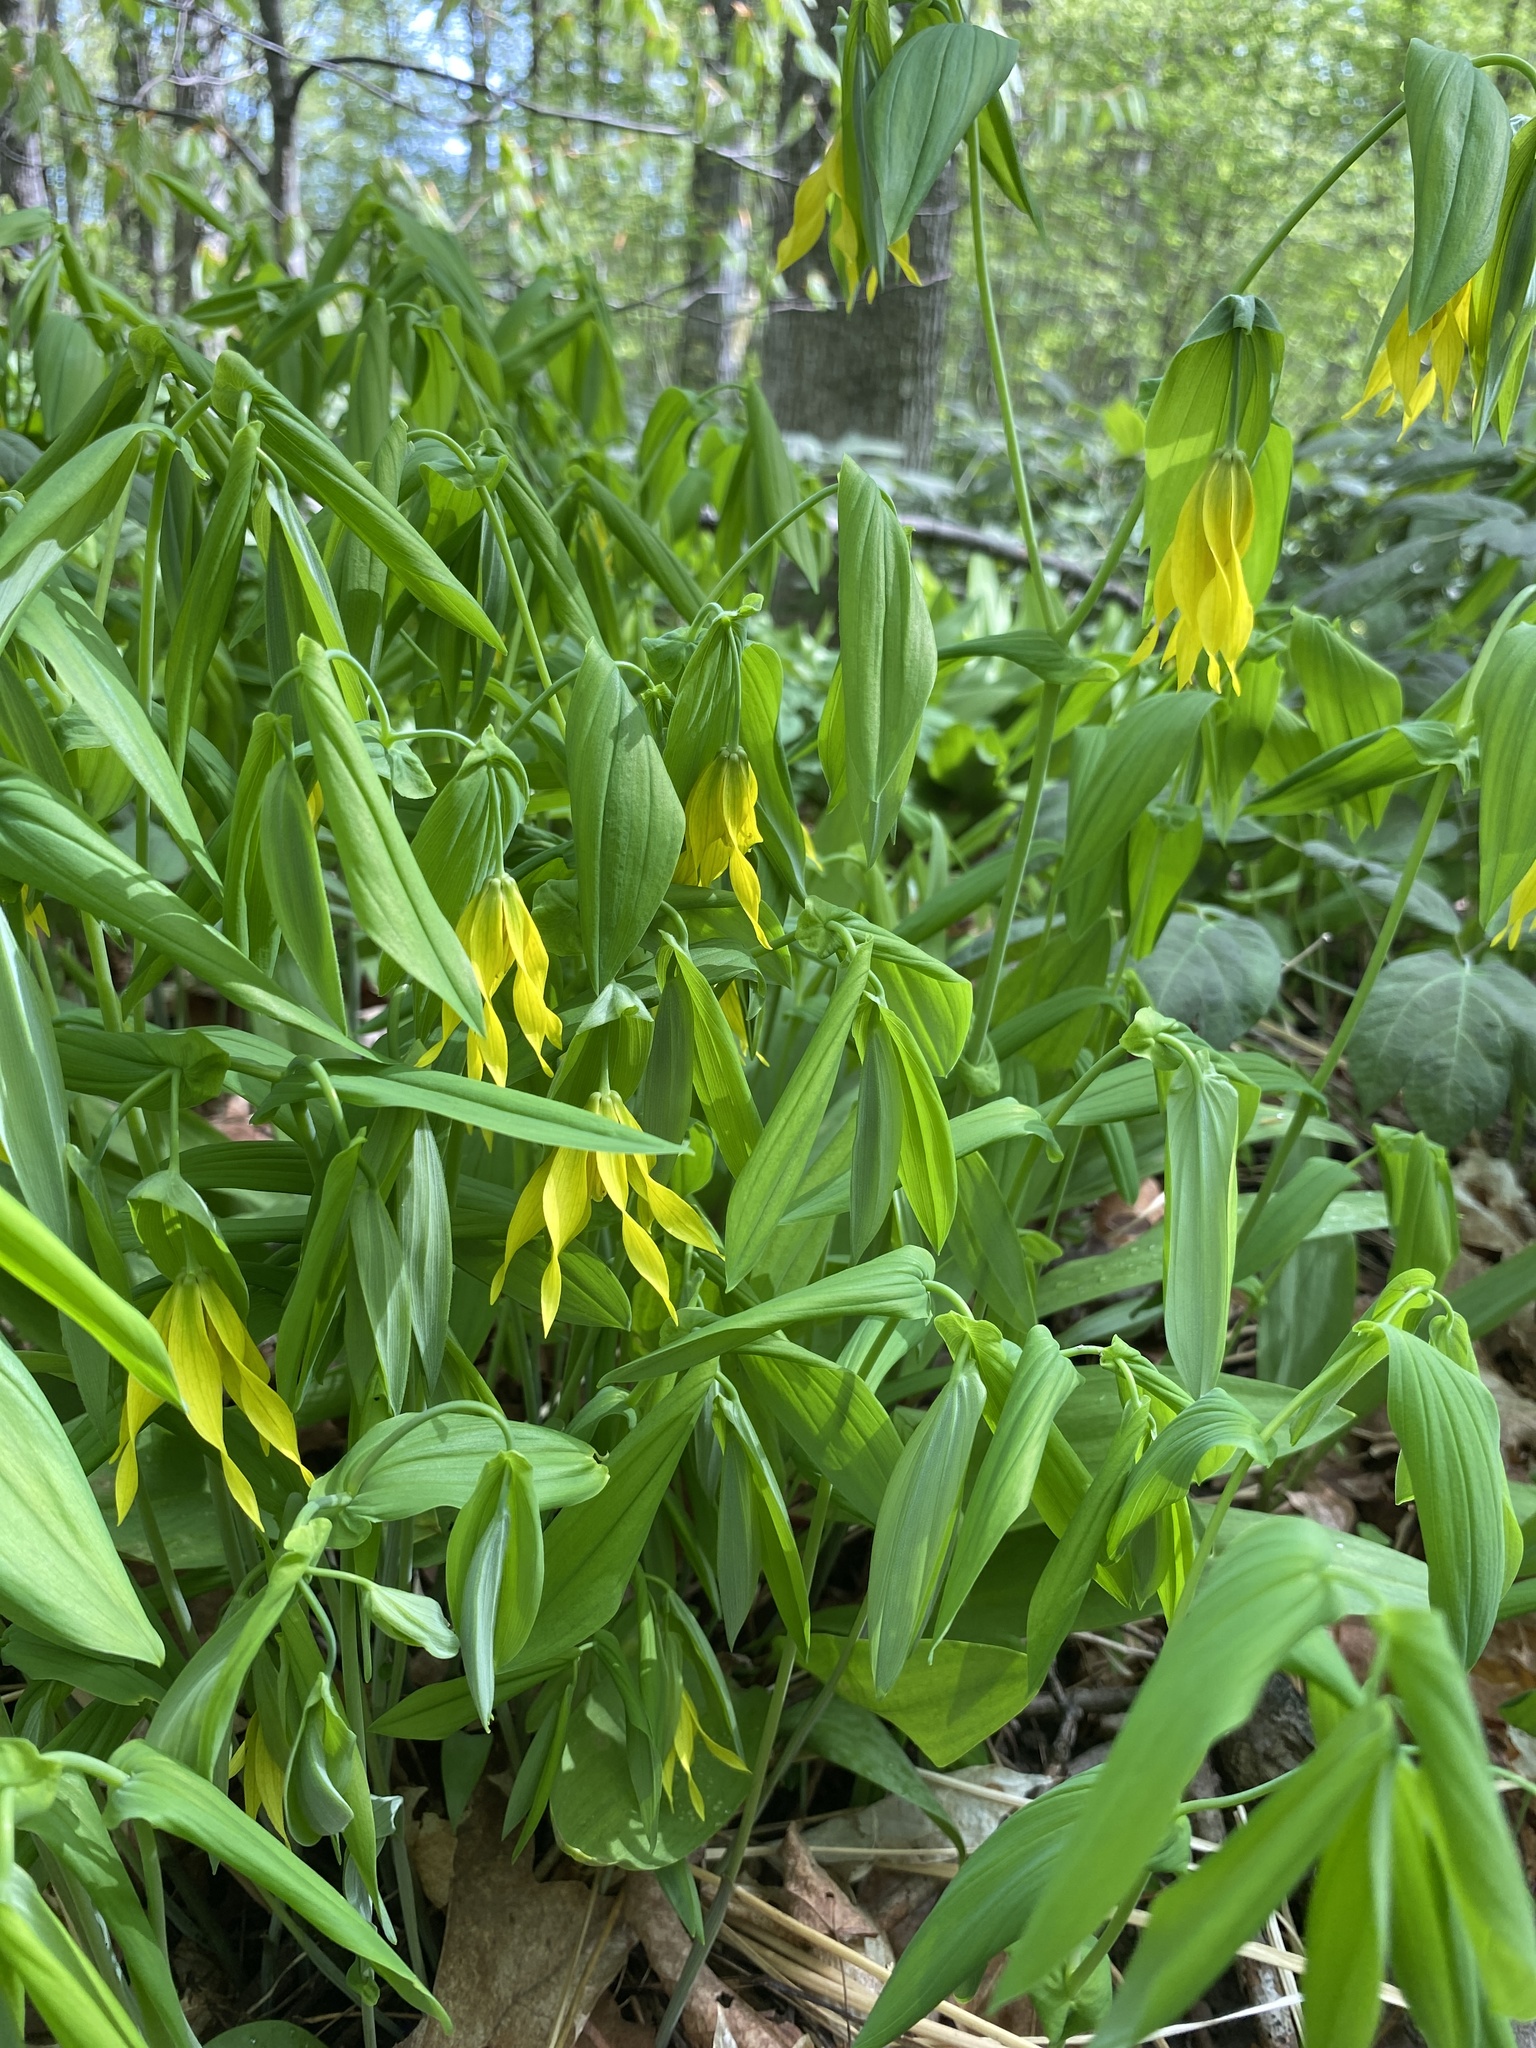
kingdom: Plantae
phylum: Tracheophyta
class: Liliopsida
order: Liliales
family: Colchicaceae
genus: Uvularia
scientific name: Uvularia grandiflora
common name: Bellwort
